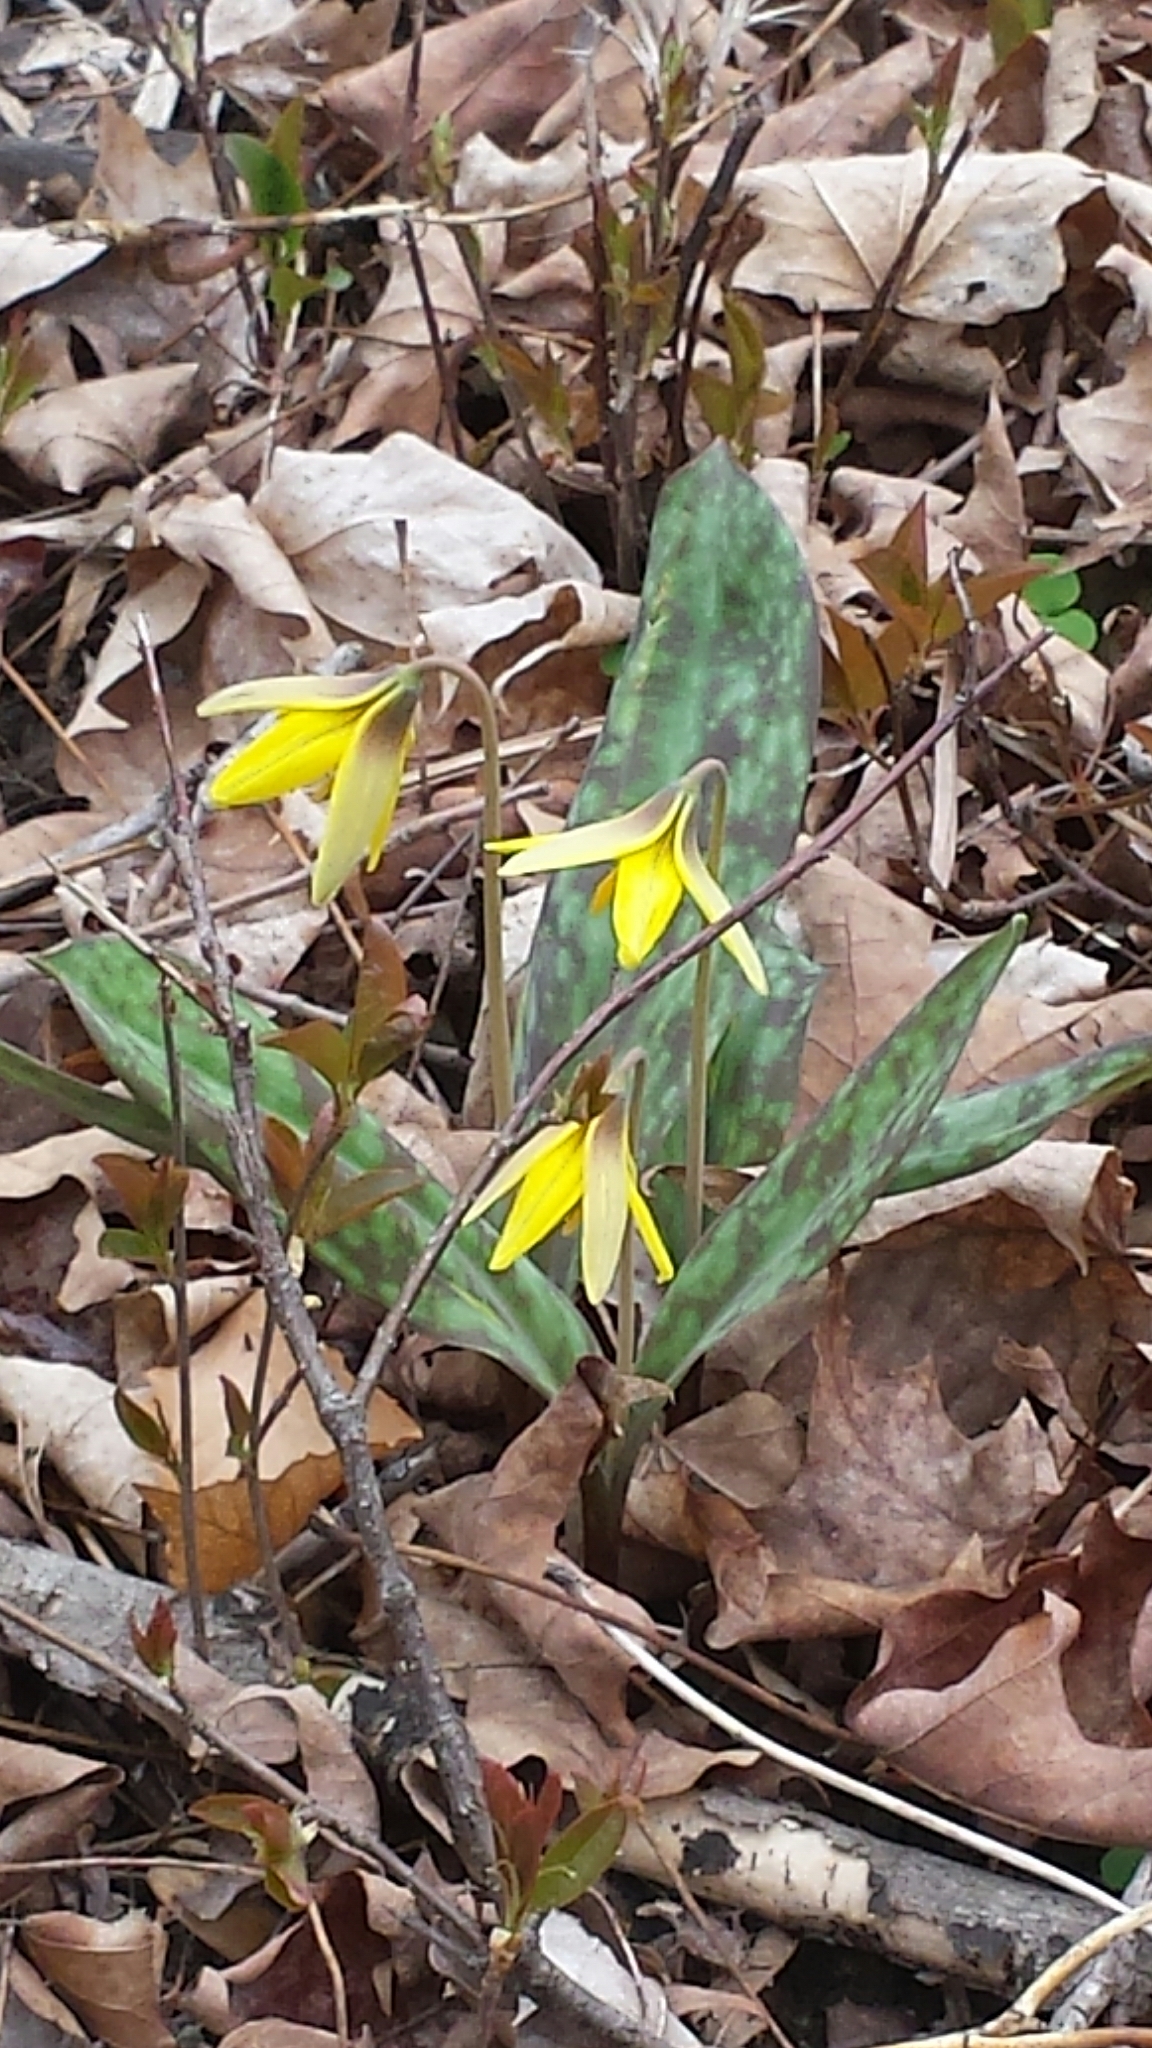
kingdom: Plantae
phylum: Tracheophyta
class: Liliopsida
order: Liliales
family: Liliaceae
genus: Erythronium
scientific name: Erythronium americanum
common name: Yellow adder's-tongue
